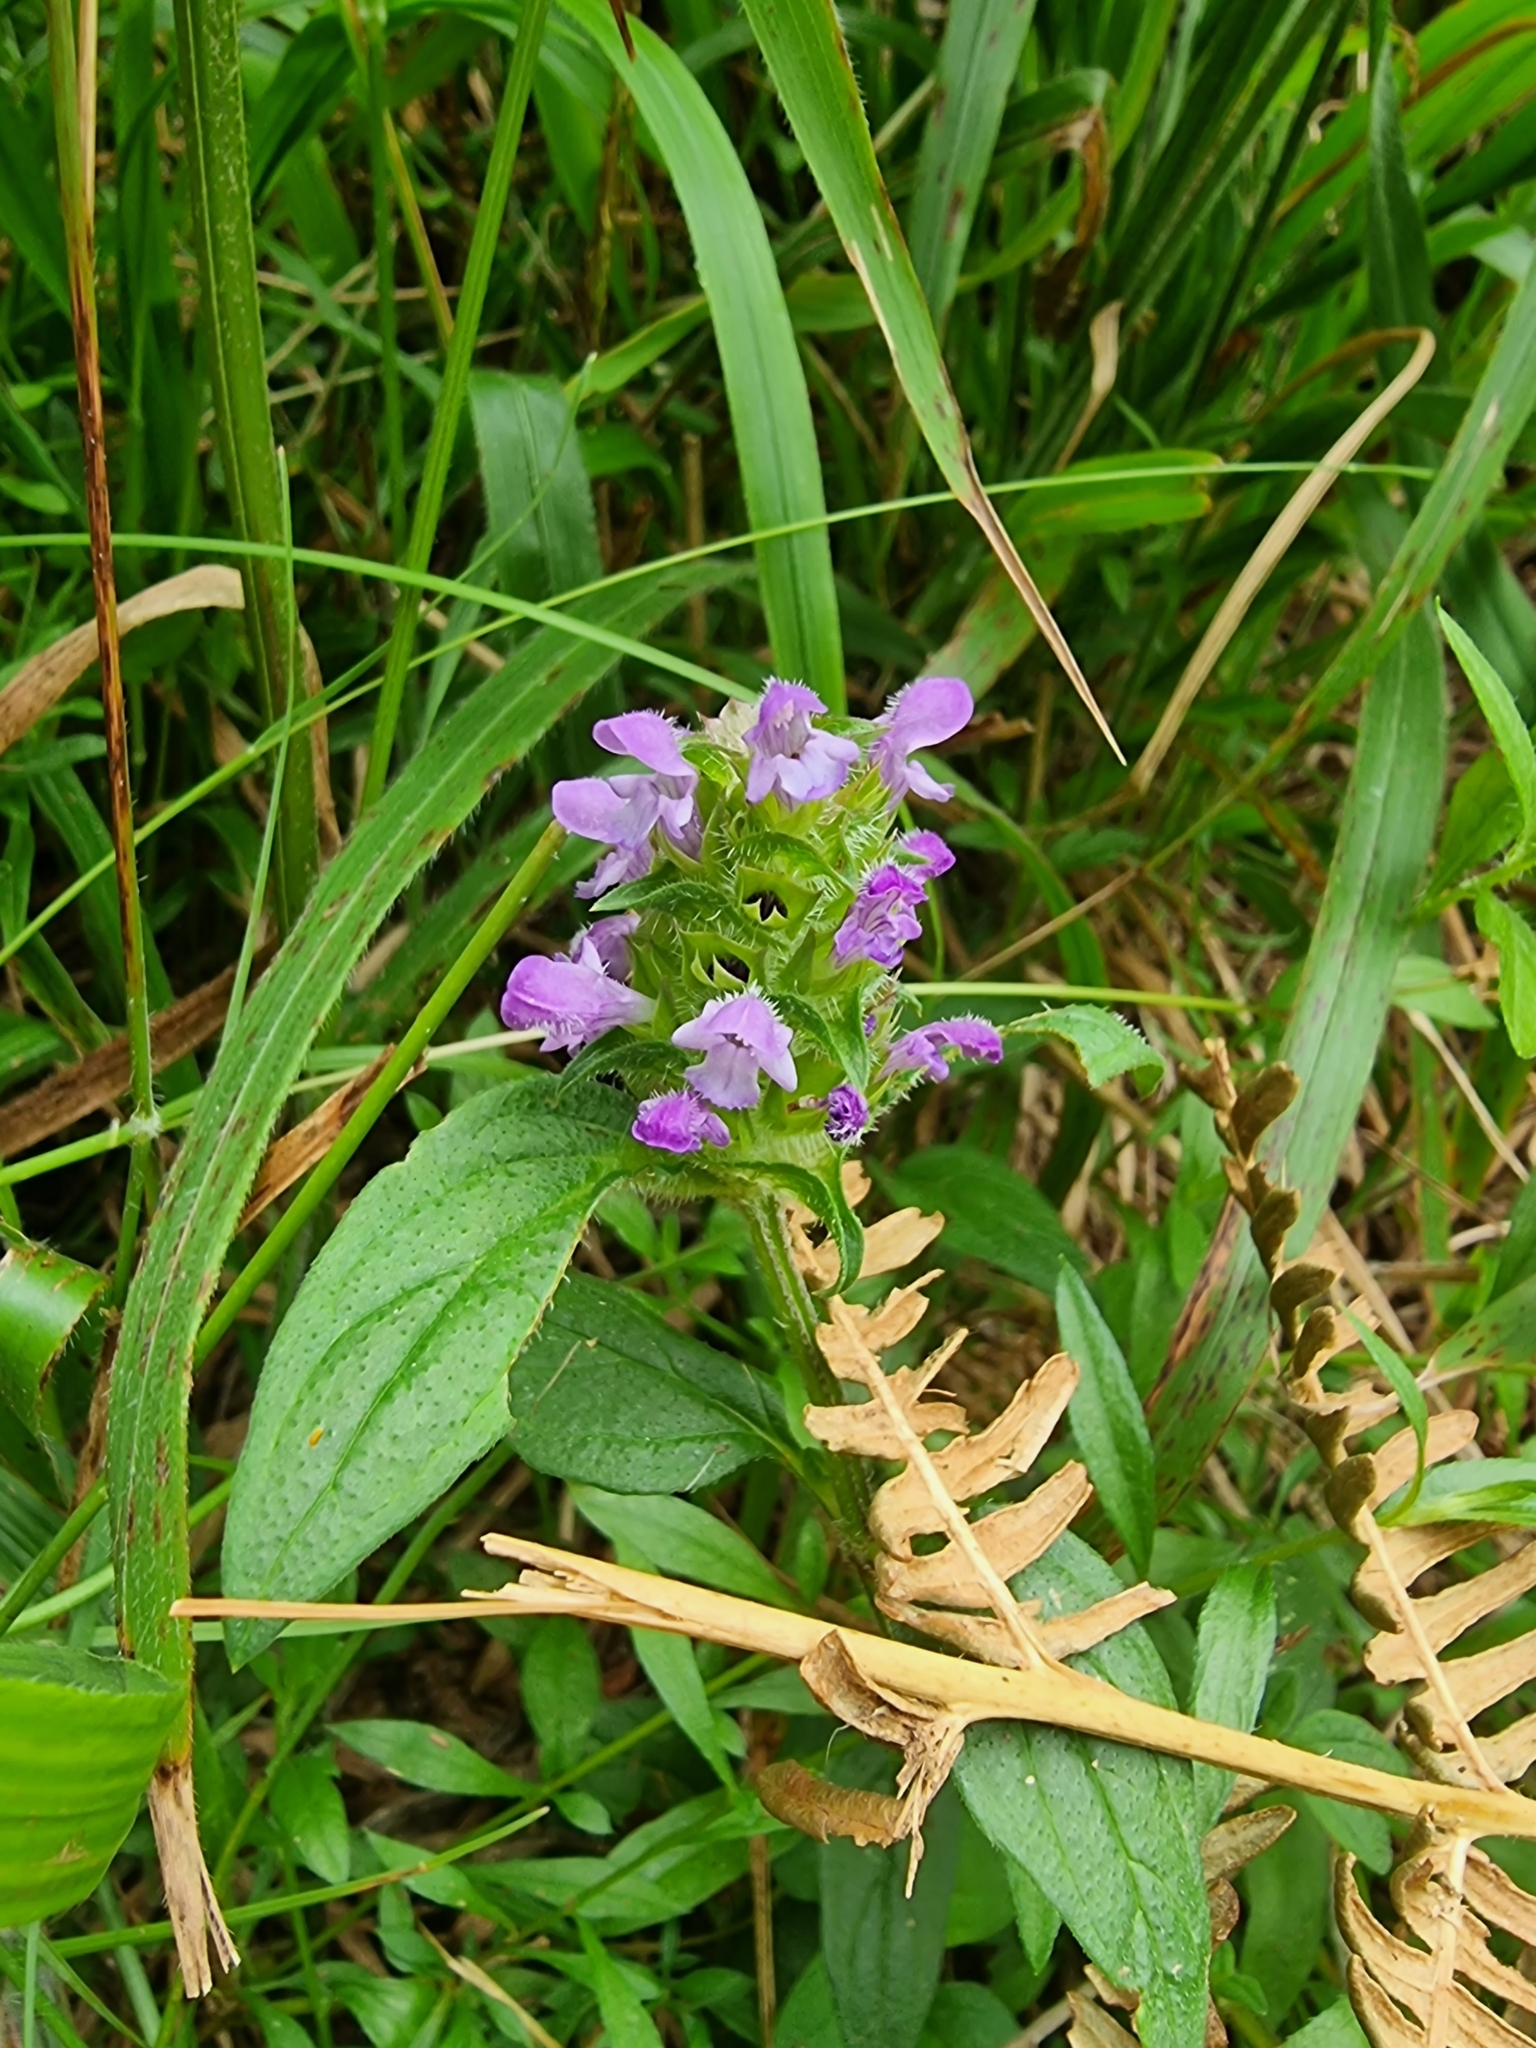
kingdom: Plantae
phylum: Tracheophyta
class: Magnoliopsida
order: Lamiales
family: Lamiaceae
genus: Prunella
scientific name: Prunella vulgaris
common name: Heal-all
